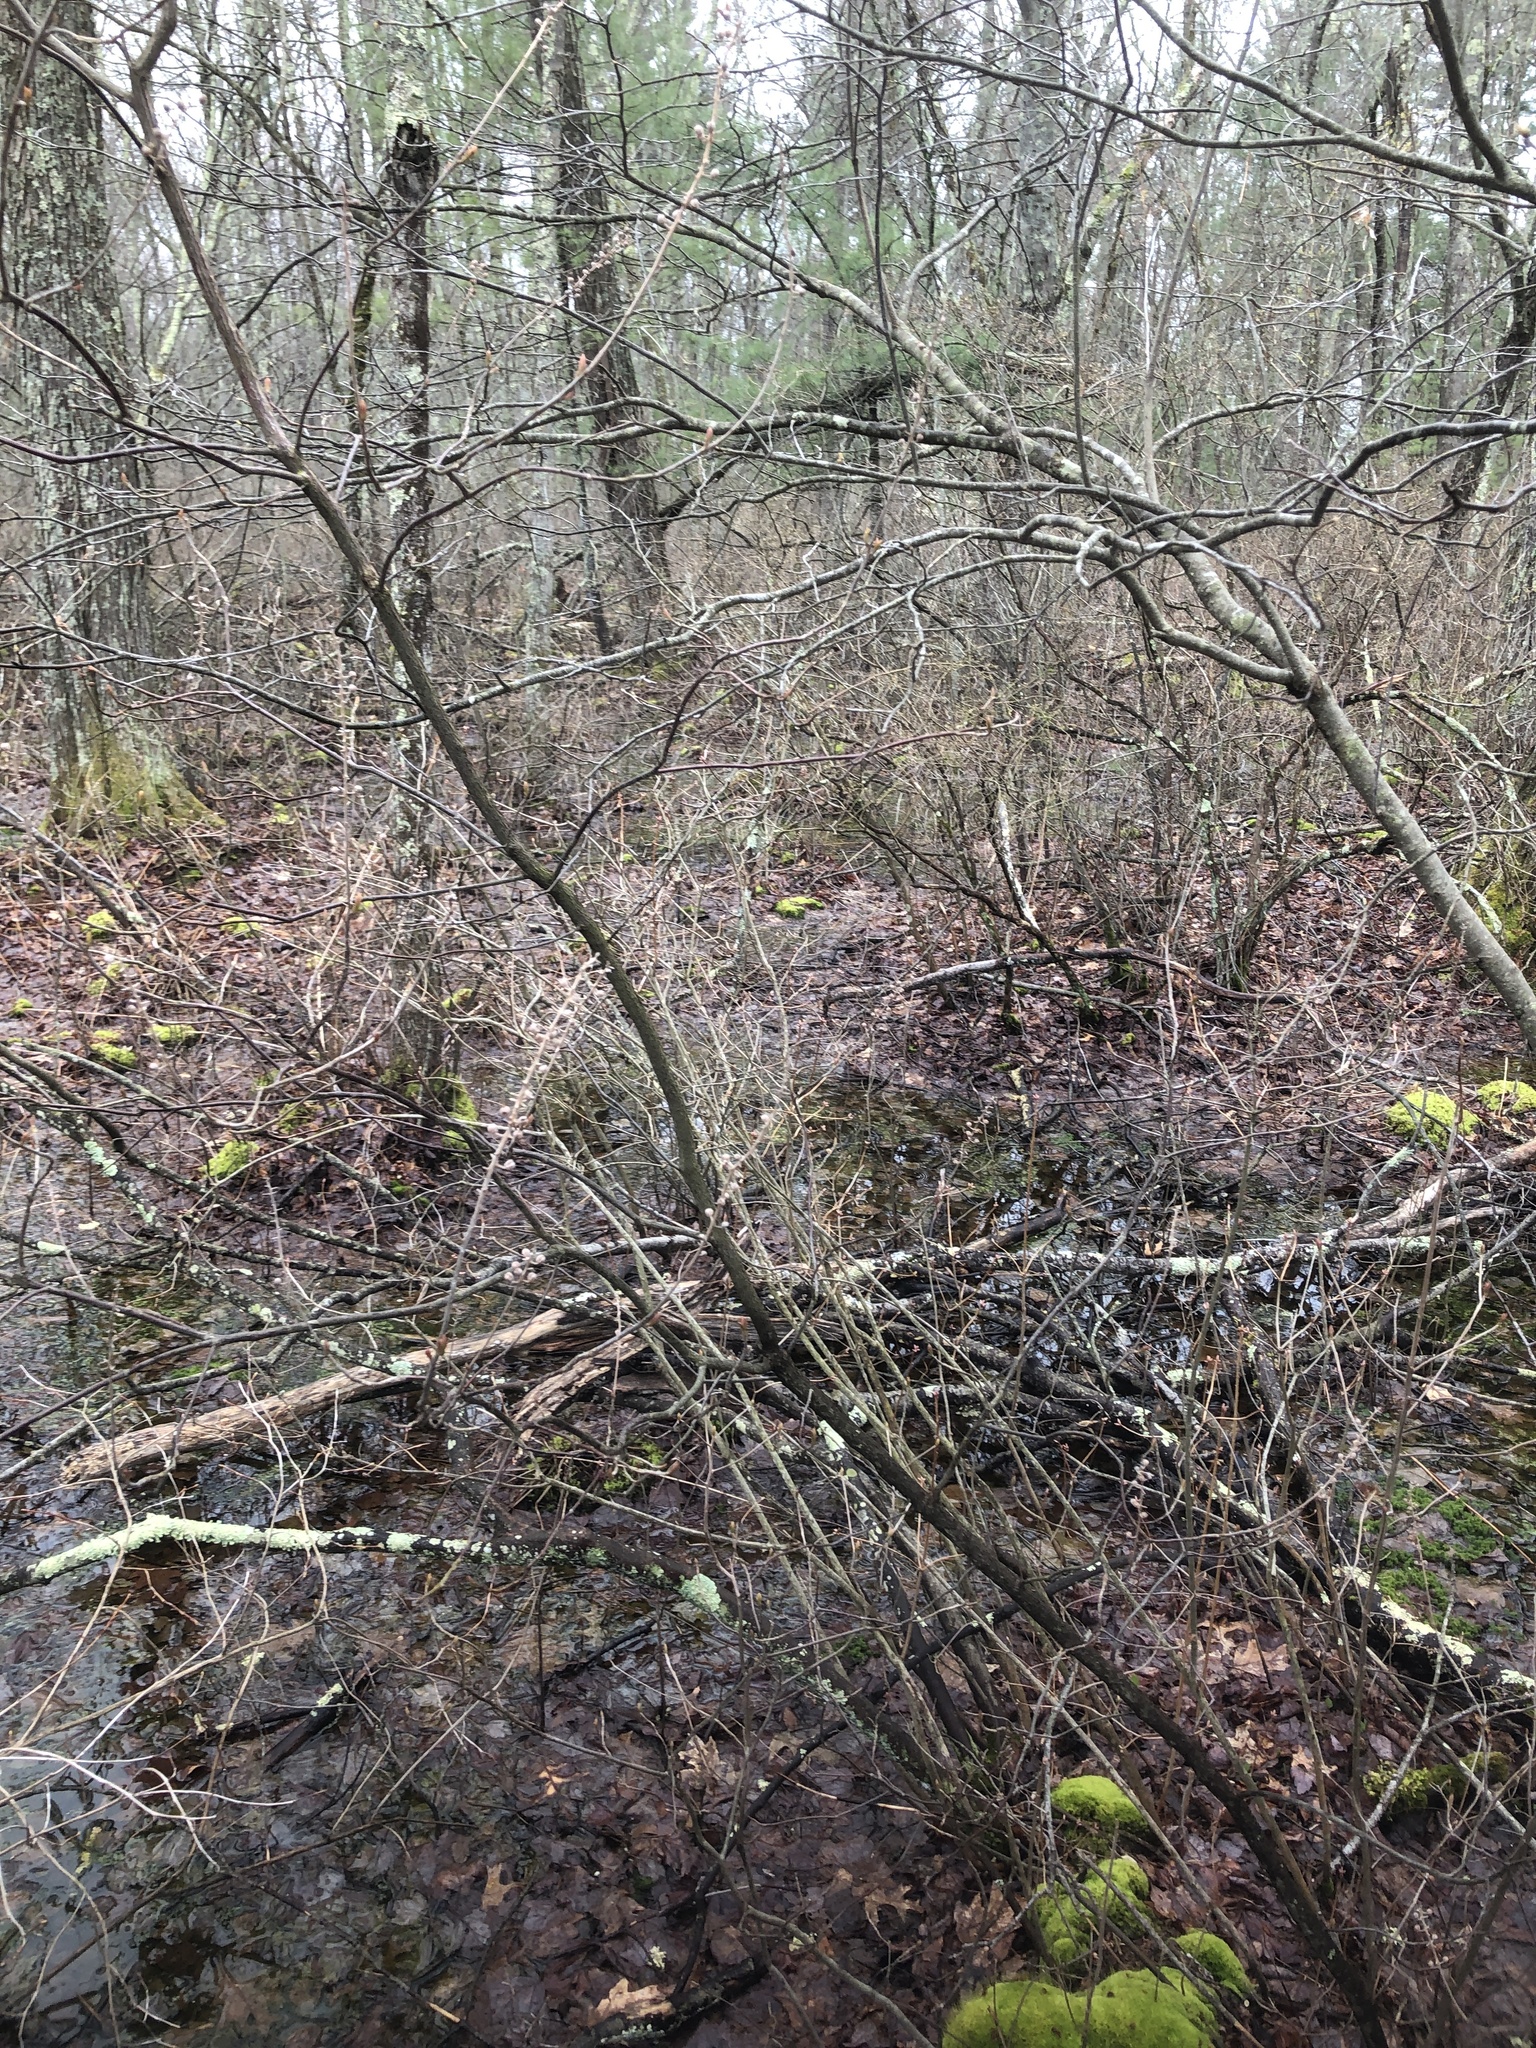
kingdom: Plantae
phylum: Tracheophyta
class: Magnoliopsida
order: Ericales
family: Clethraceae
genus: Clethra
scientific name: Clethra alnifolia
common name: Sweet pepperbush
